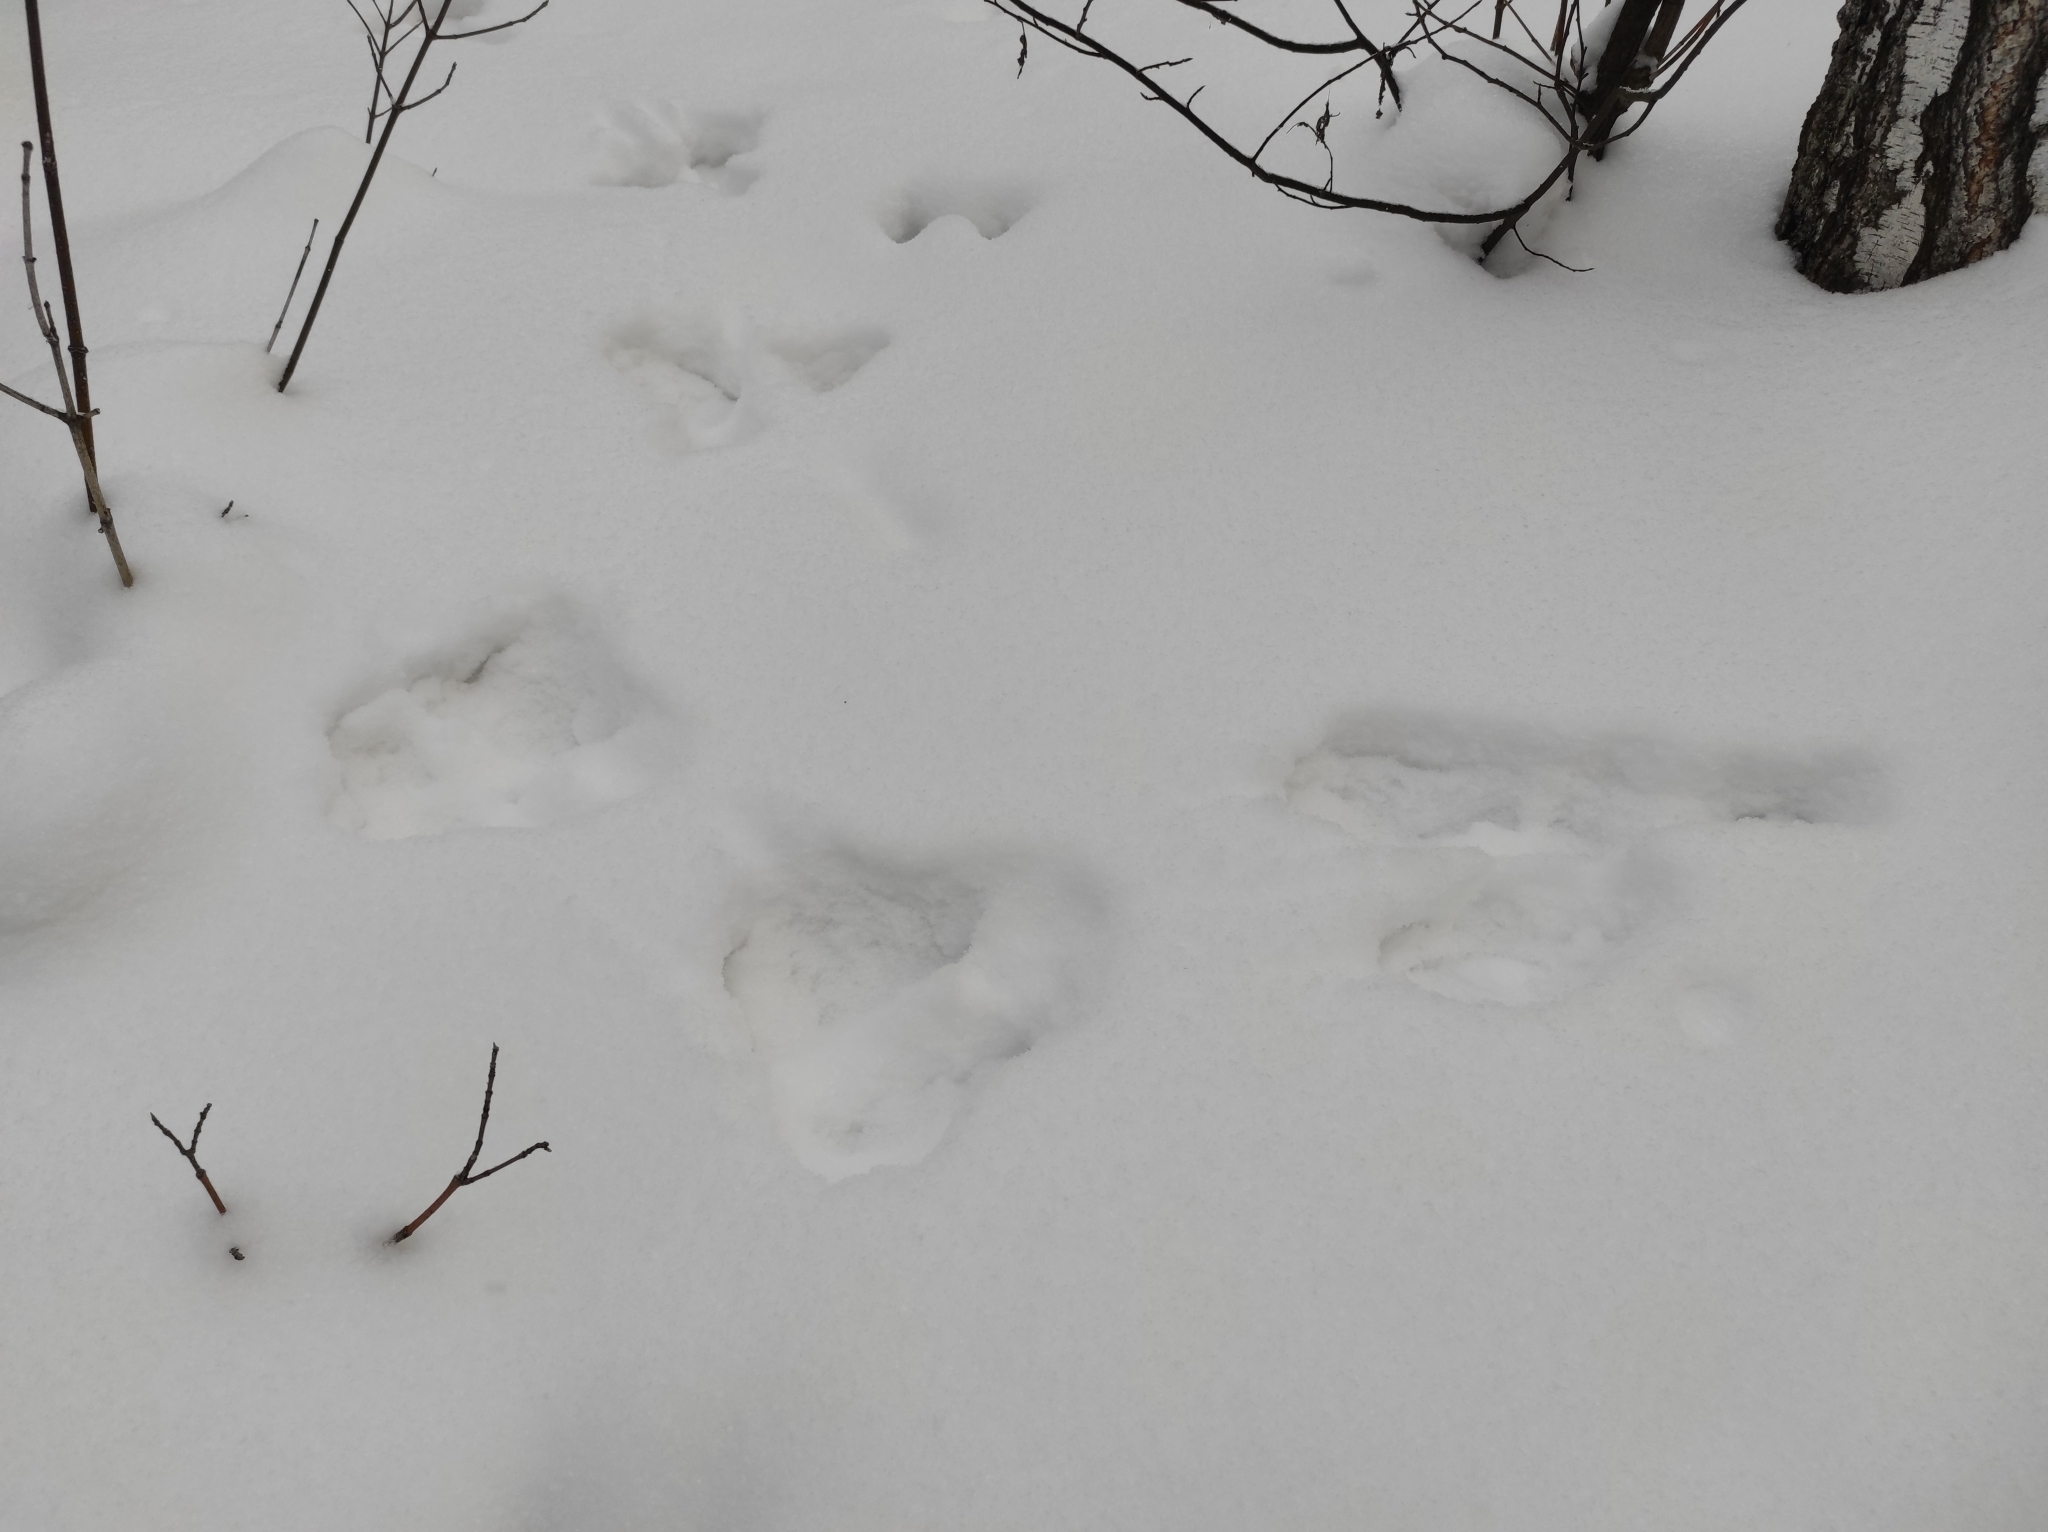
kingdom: Animalia
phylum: Chordata
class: Mammalia
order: Lagomorpha
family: Leporidae
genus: Lepus
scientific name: Lepus timidus
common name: Mountain hare
